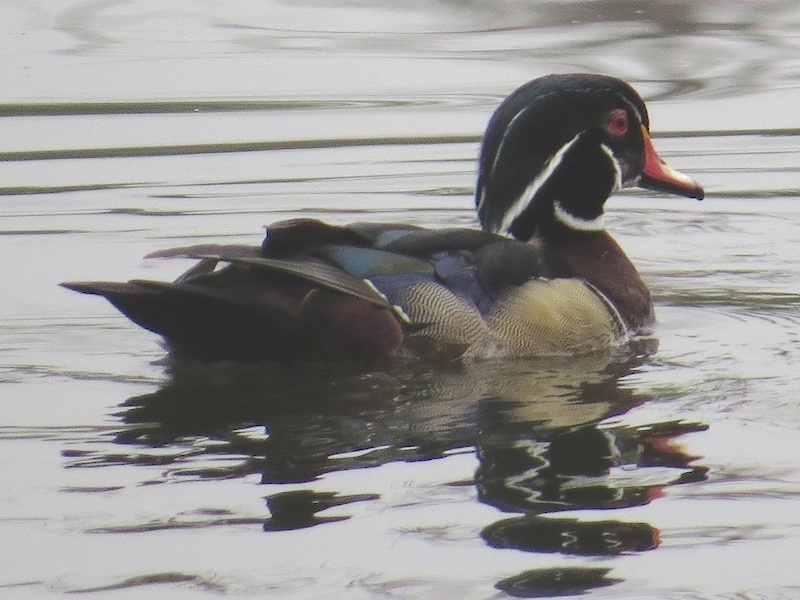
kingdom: Animalia
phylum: Chordata
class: Aves
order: Anseriformes
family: Anatidae
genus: Aix
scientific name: Aix sponsa
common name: Wood duck
